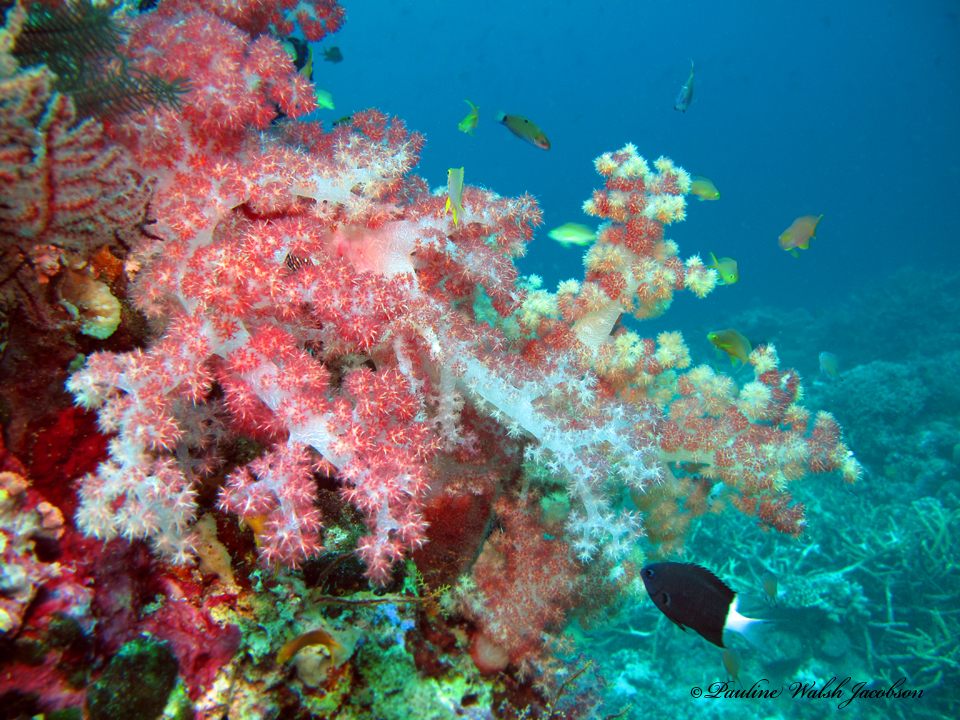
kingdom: Animalia
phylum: Chordata
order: Perciformes
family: Pomacentridae
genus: Pycnochromis
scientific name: Pycnochromis margaritifer
